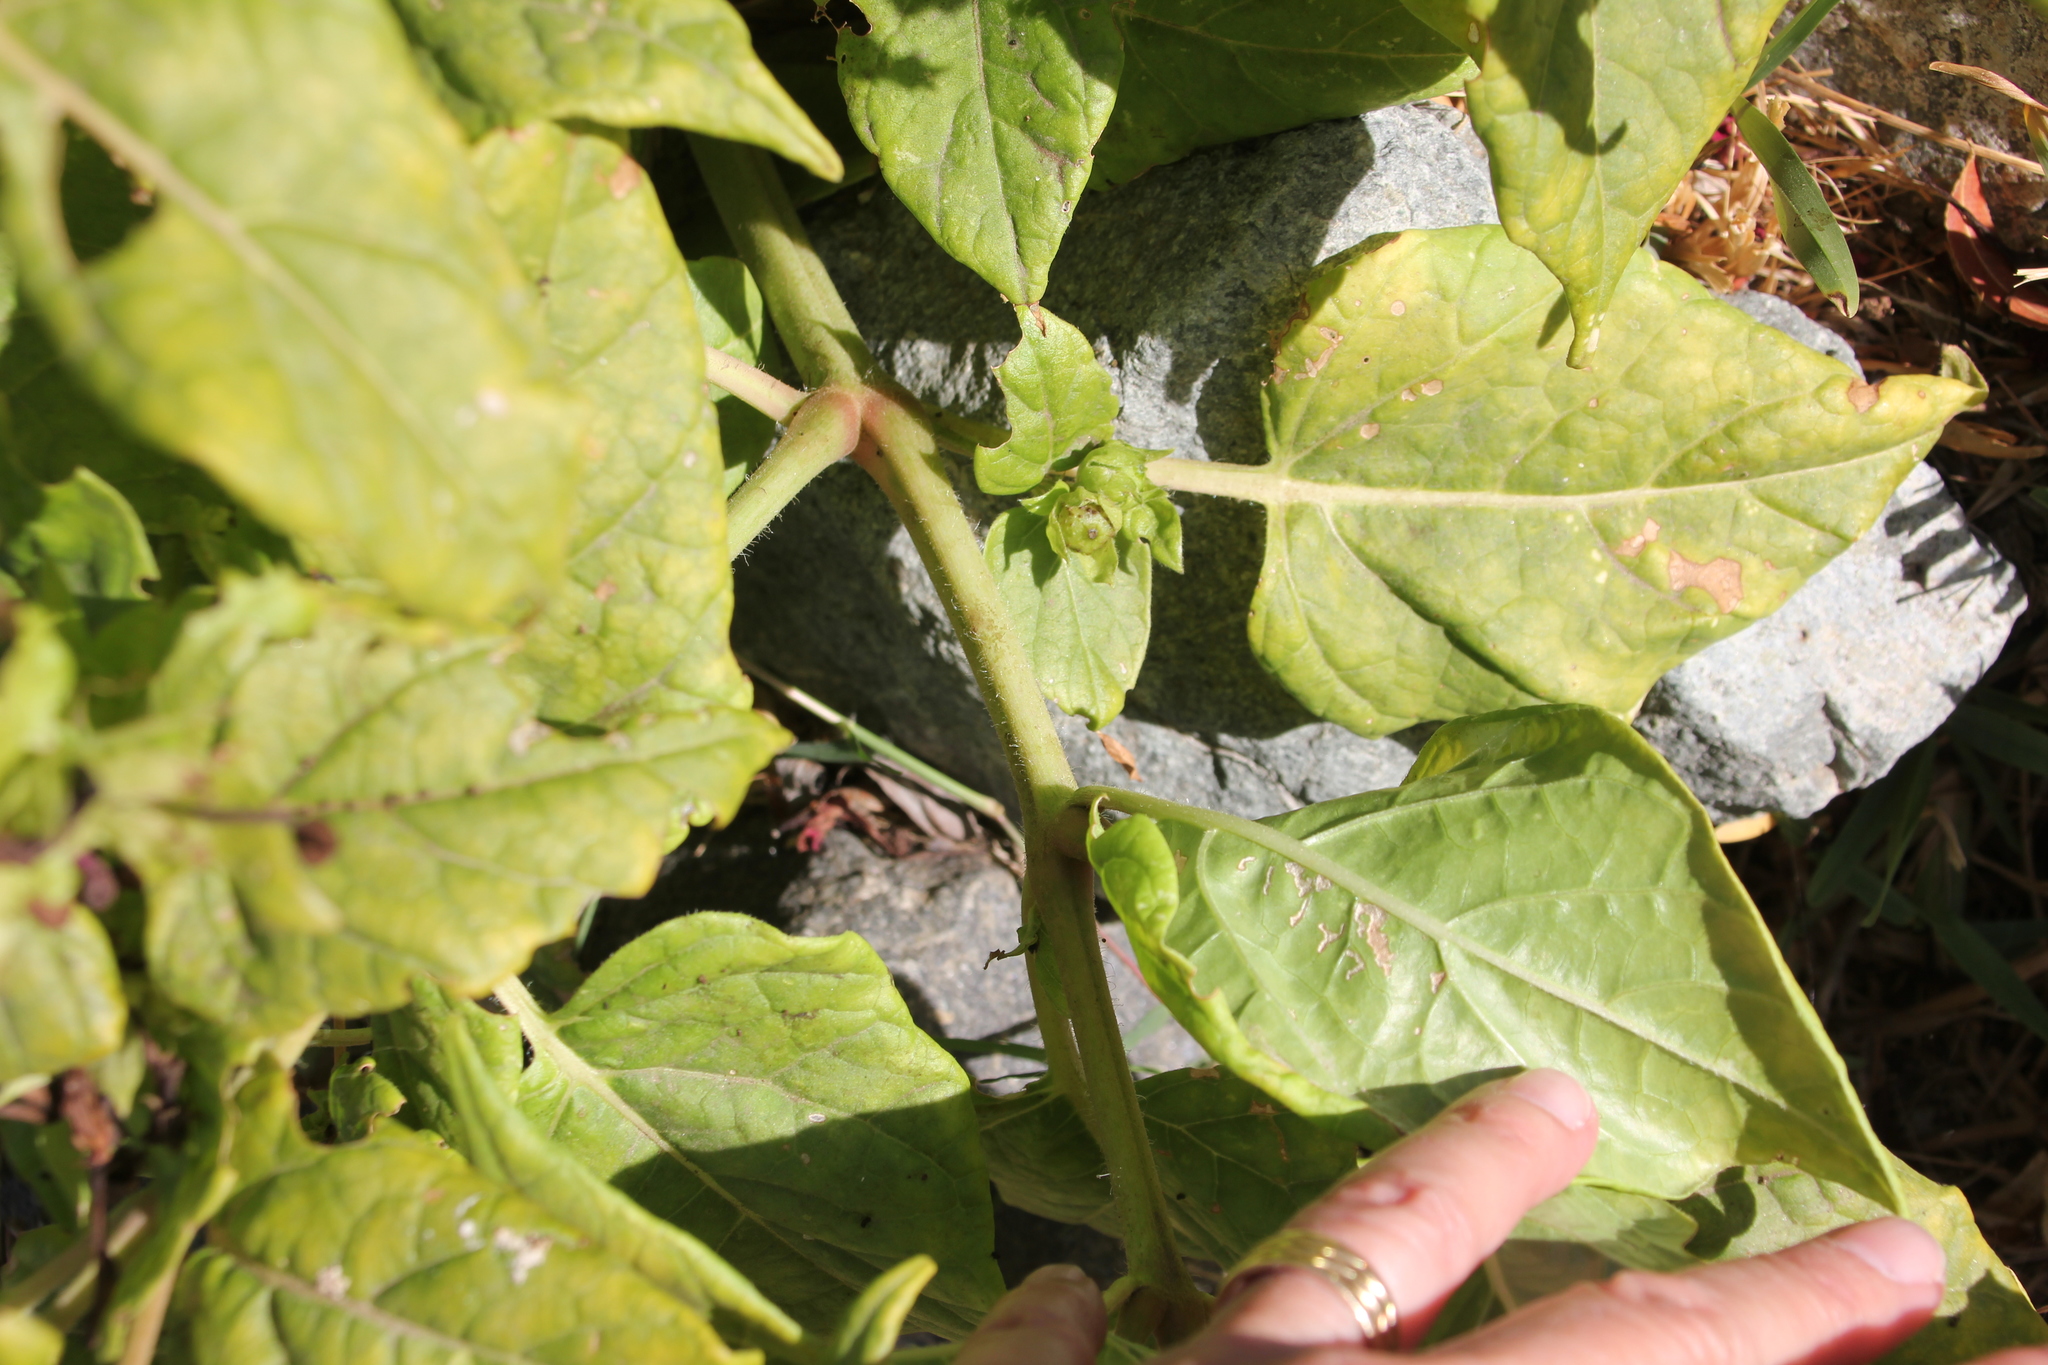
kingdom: Plantae
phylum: Tracheophyta
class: Magnoliopsida
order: Caryophyllales
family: Nyctaginaceae
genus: Mirabilis
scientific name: Mirabilis jalapa
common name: Marvel-of-peru
